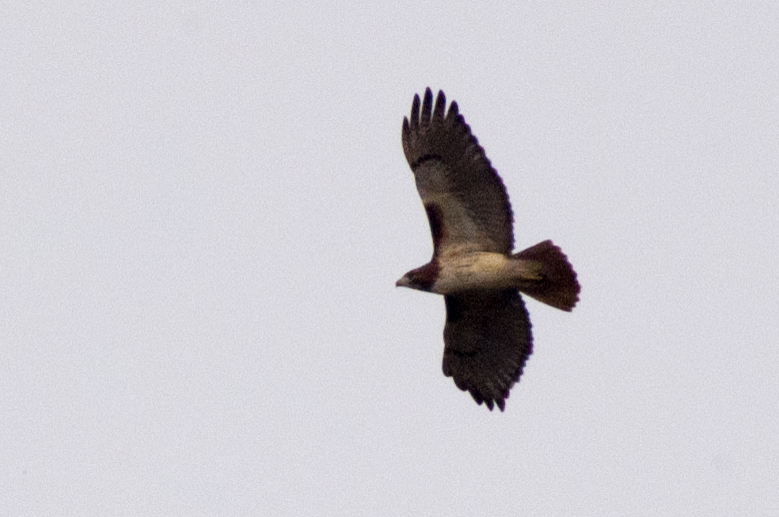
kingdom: Animalia
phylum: Chordata
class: Aves
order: Accipitriformes
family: Accipitridae
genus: Buteo
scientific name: Buteo jamaicensis
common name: Red-tailed hawk
